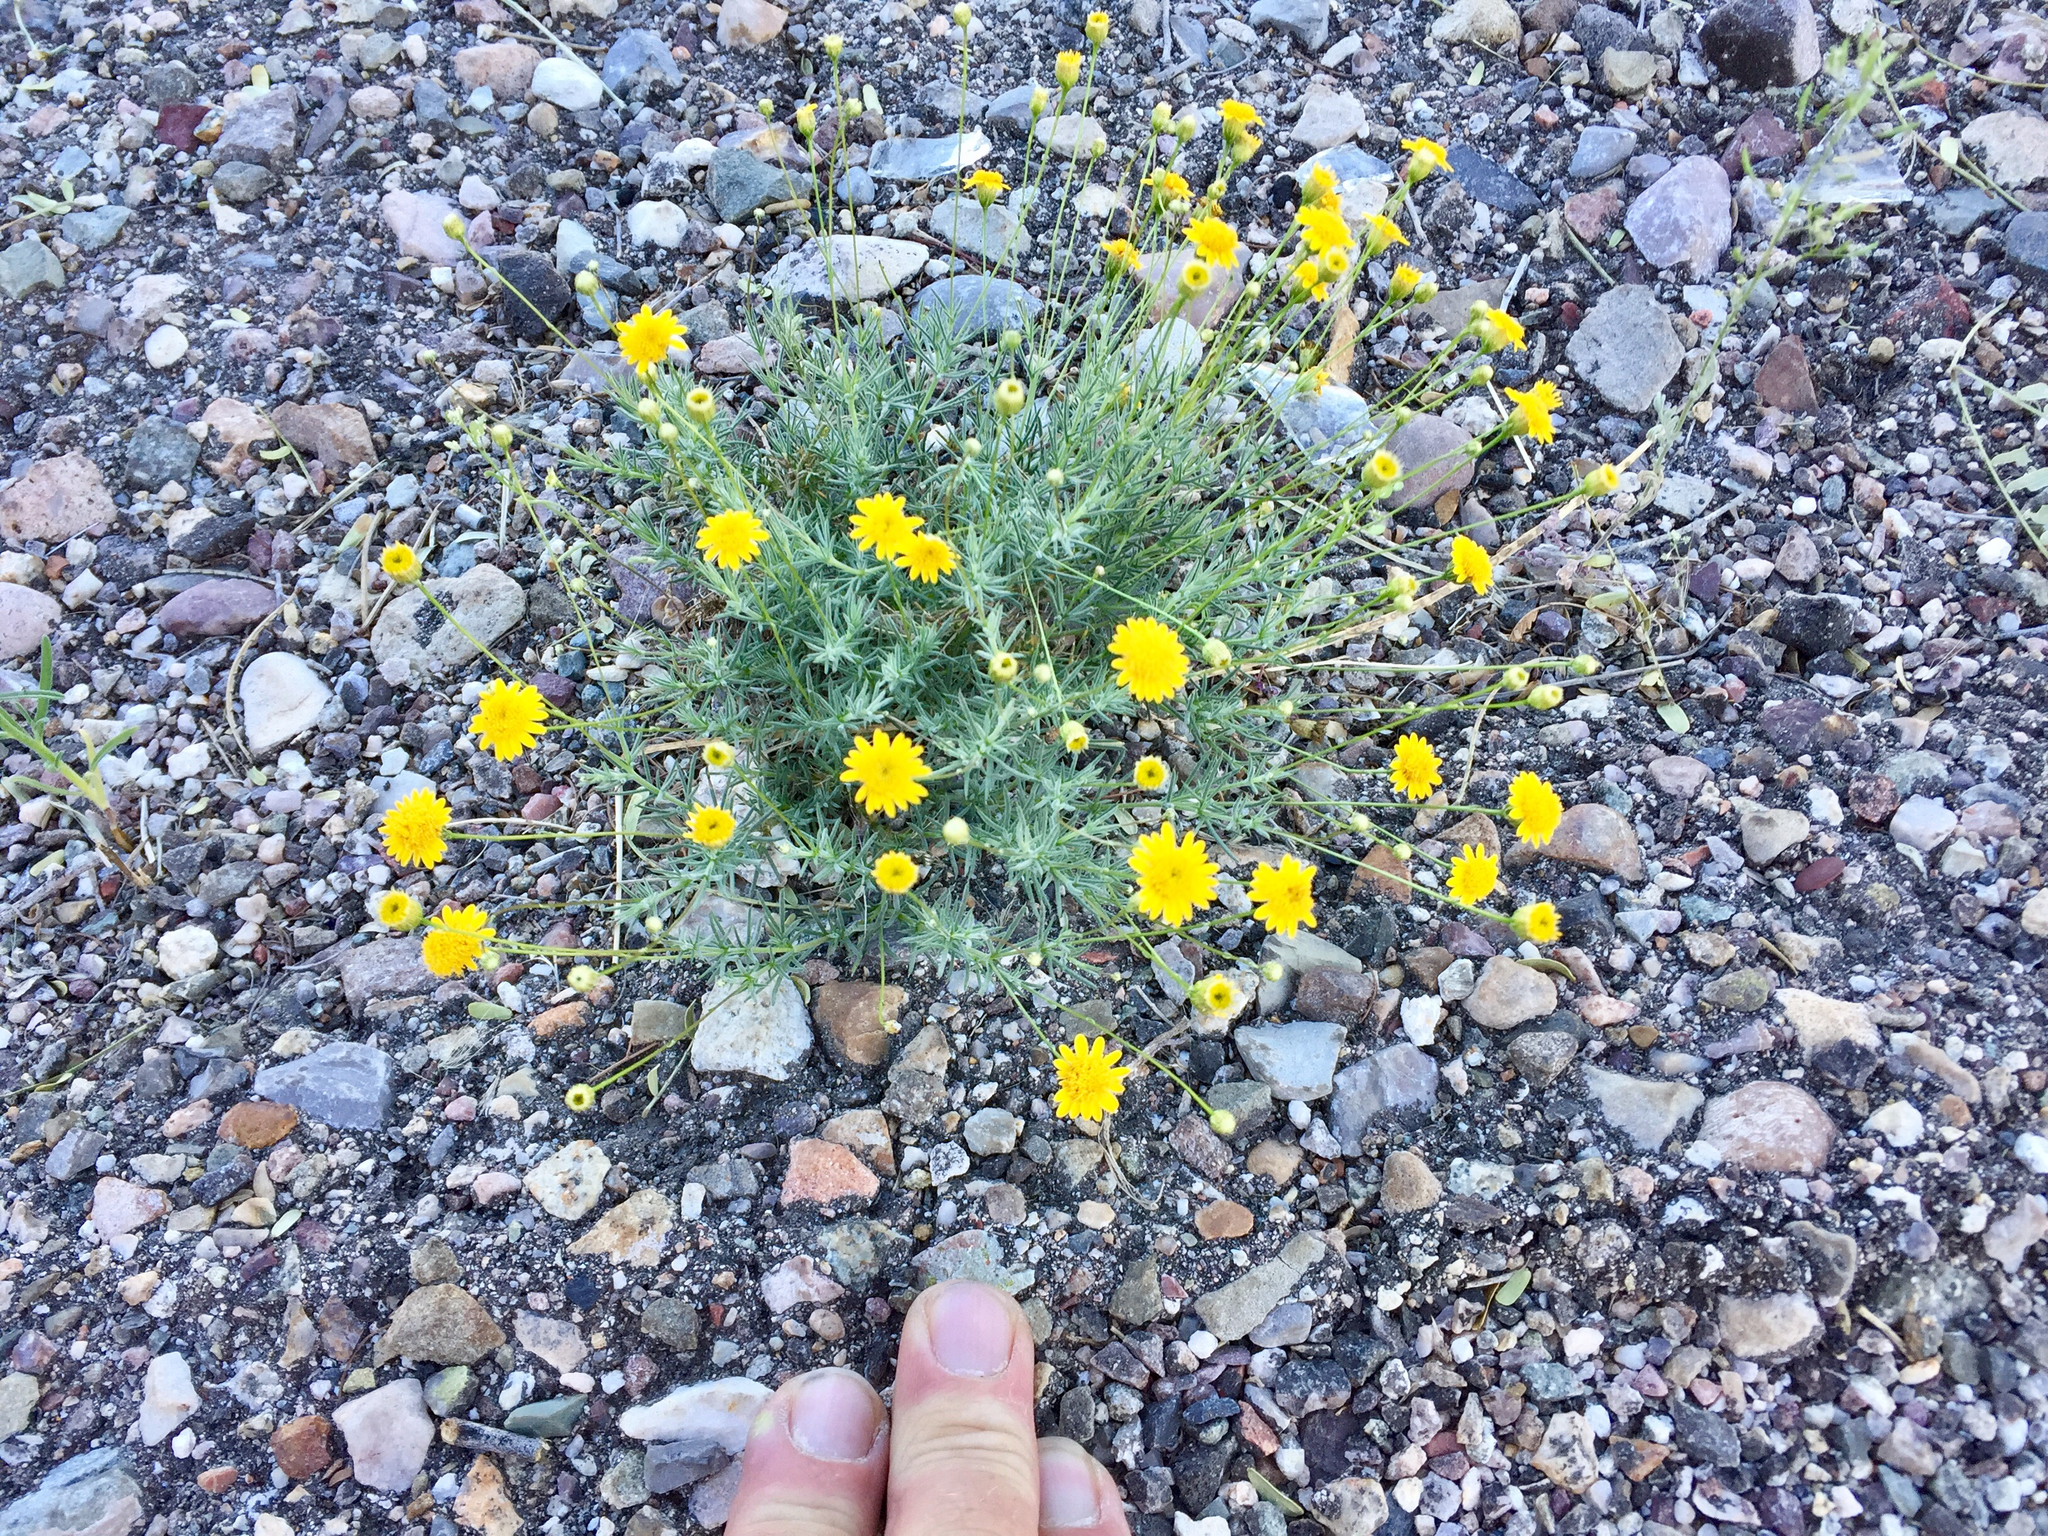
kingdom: Plantae
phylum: Tracheophyta
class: Magnoliopsida
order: Asterales
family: Asteraceae
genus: Thymophylla
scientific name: Thymophylla pentachaeta
